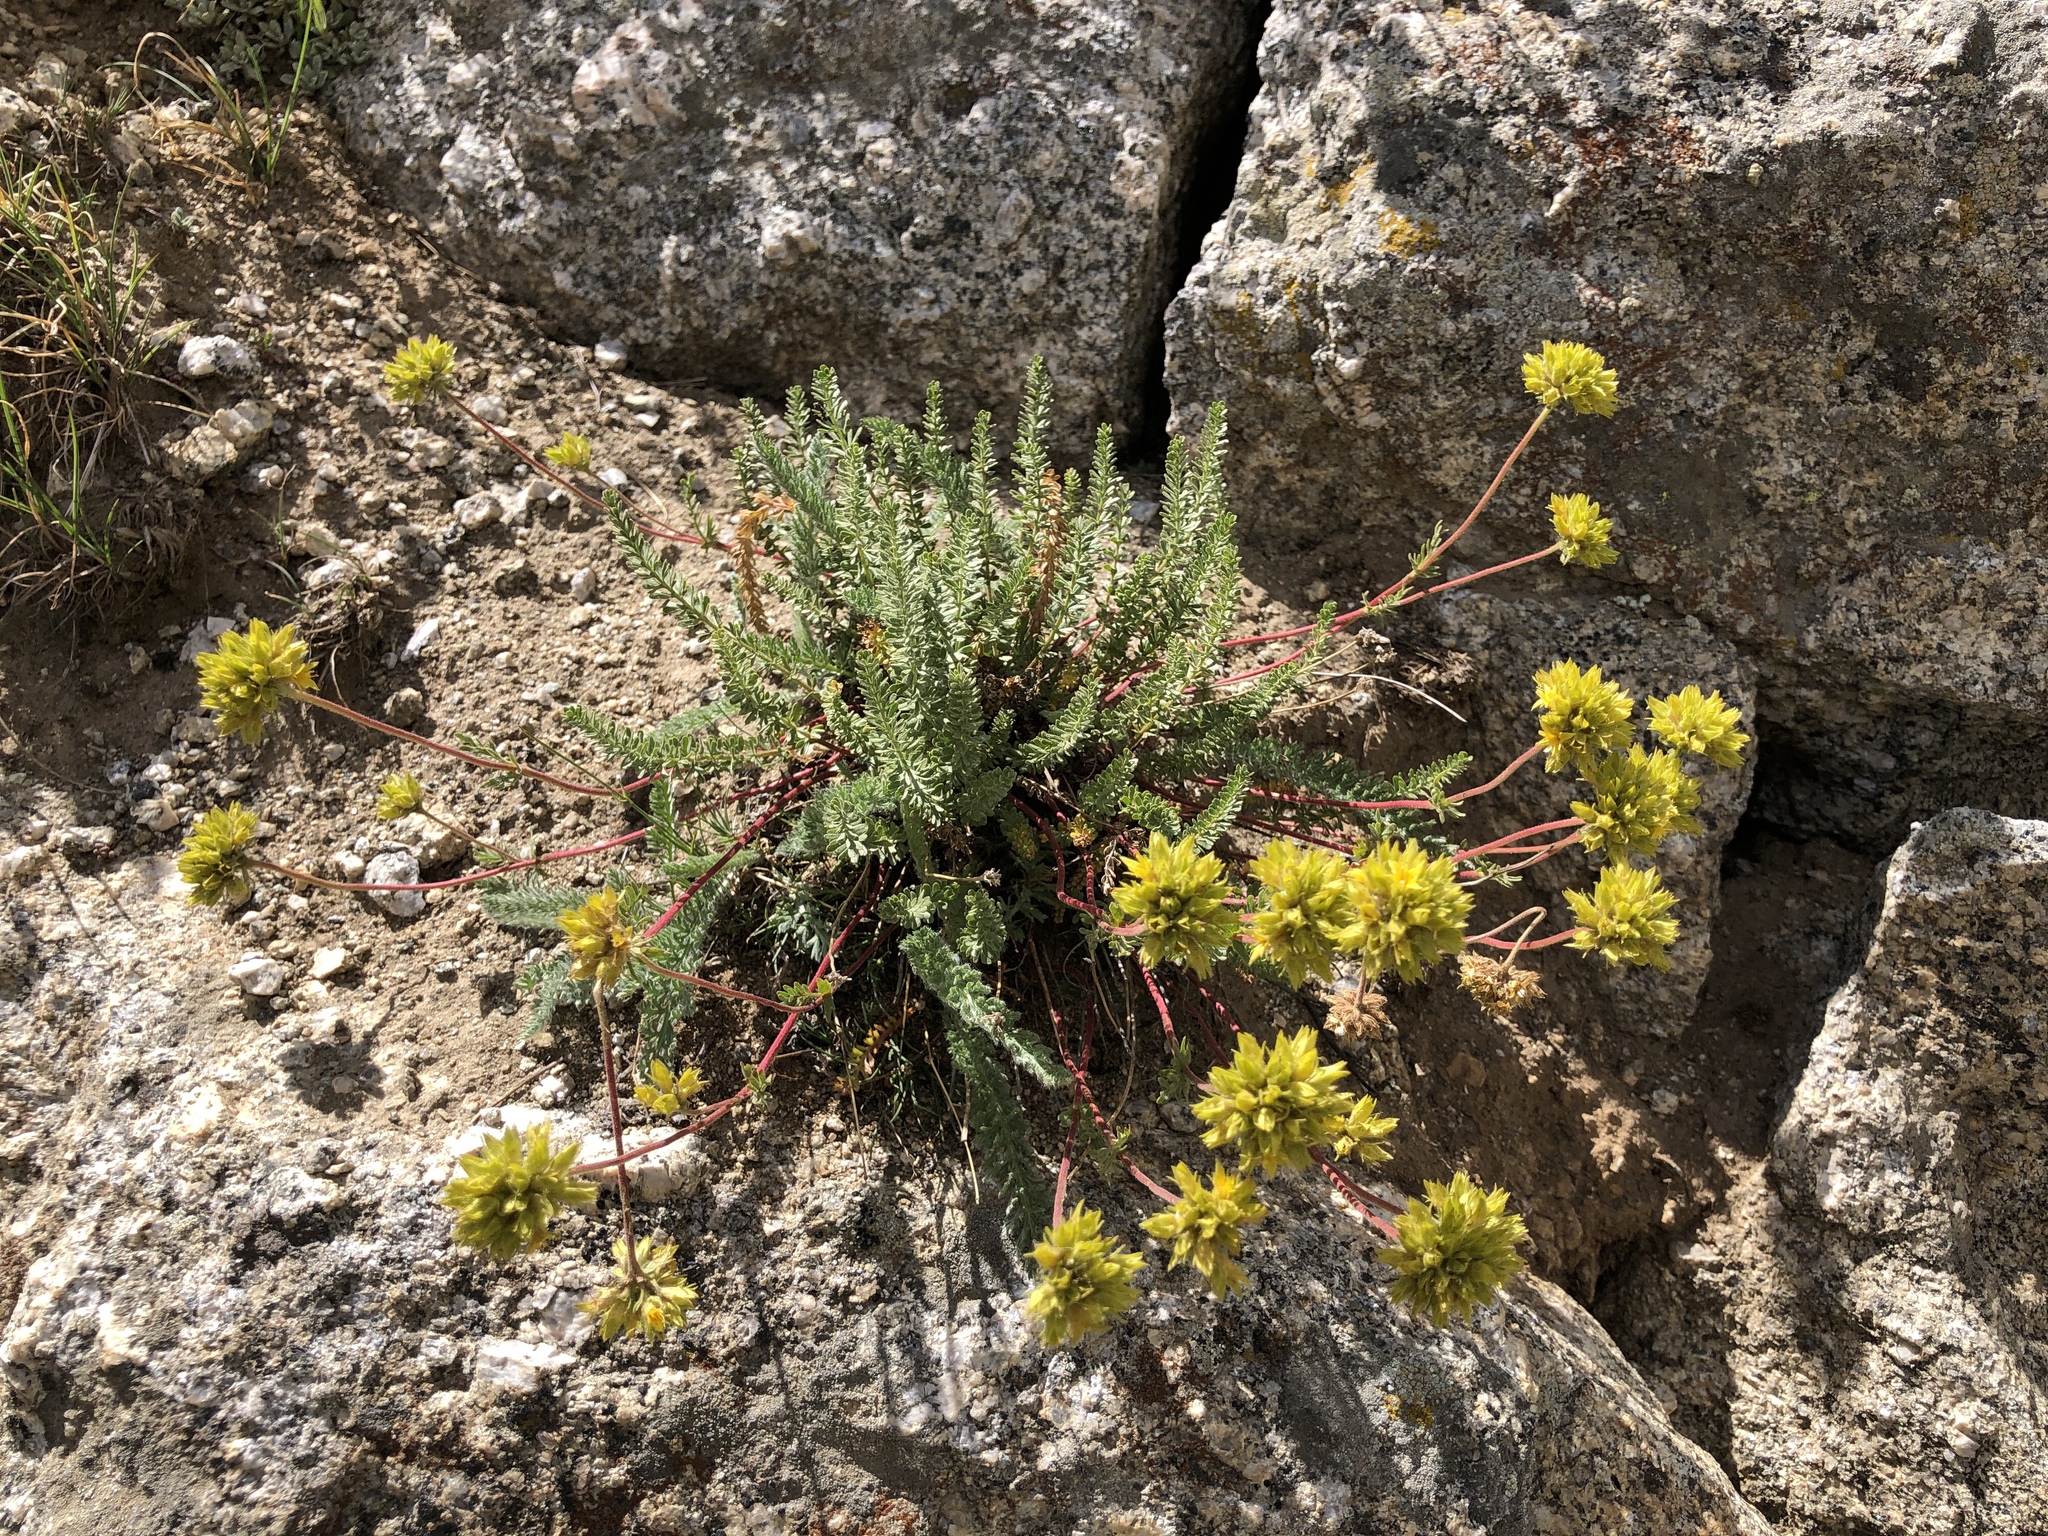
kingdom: Plantae
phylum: Tracheophyta
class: Magnoliopsida
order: Rosales
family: Rosaceae
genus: Potentilla
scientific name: Potentilla gordonii
